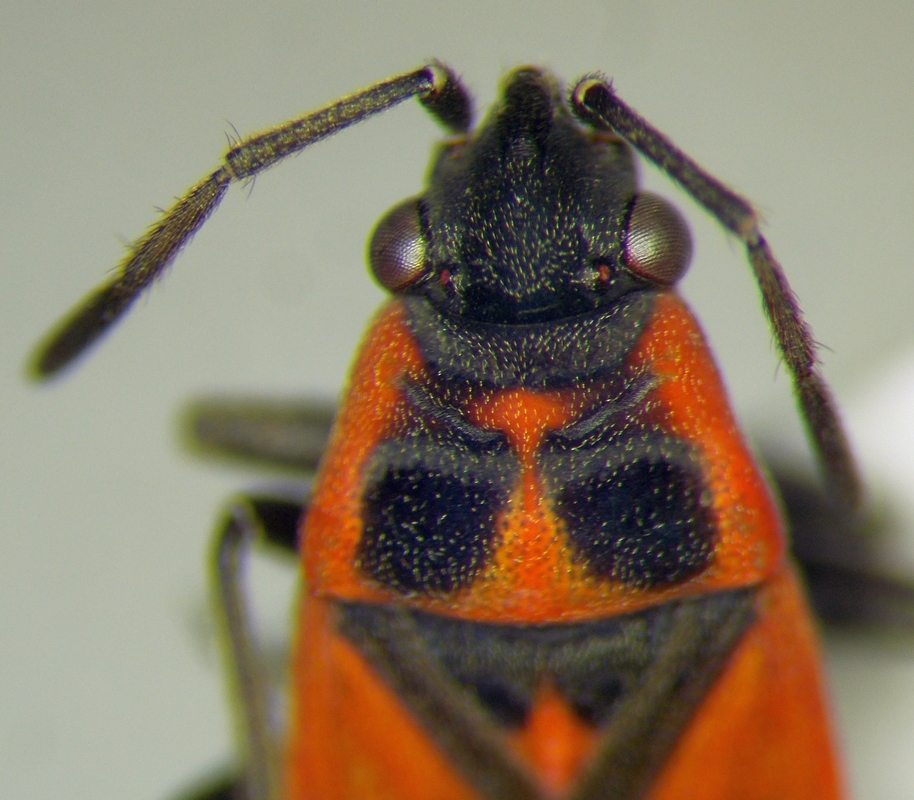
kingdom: Animalia
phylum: Arthropoda
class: Insecta
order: Hemiptera
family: Lygaeidae
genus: Melanocoryphus
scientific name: Melanocoryphus tristrami
